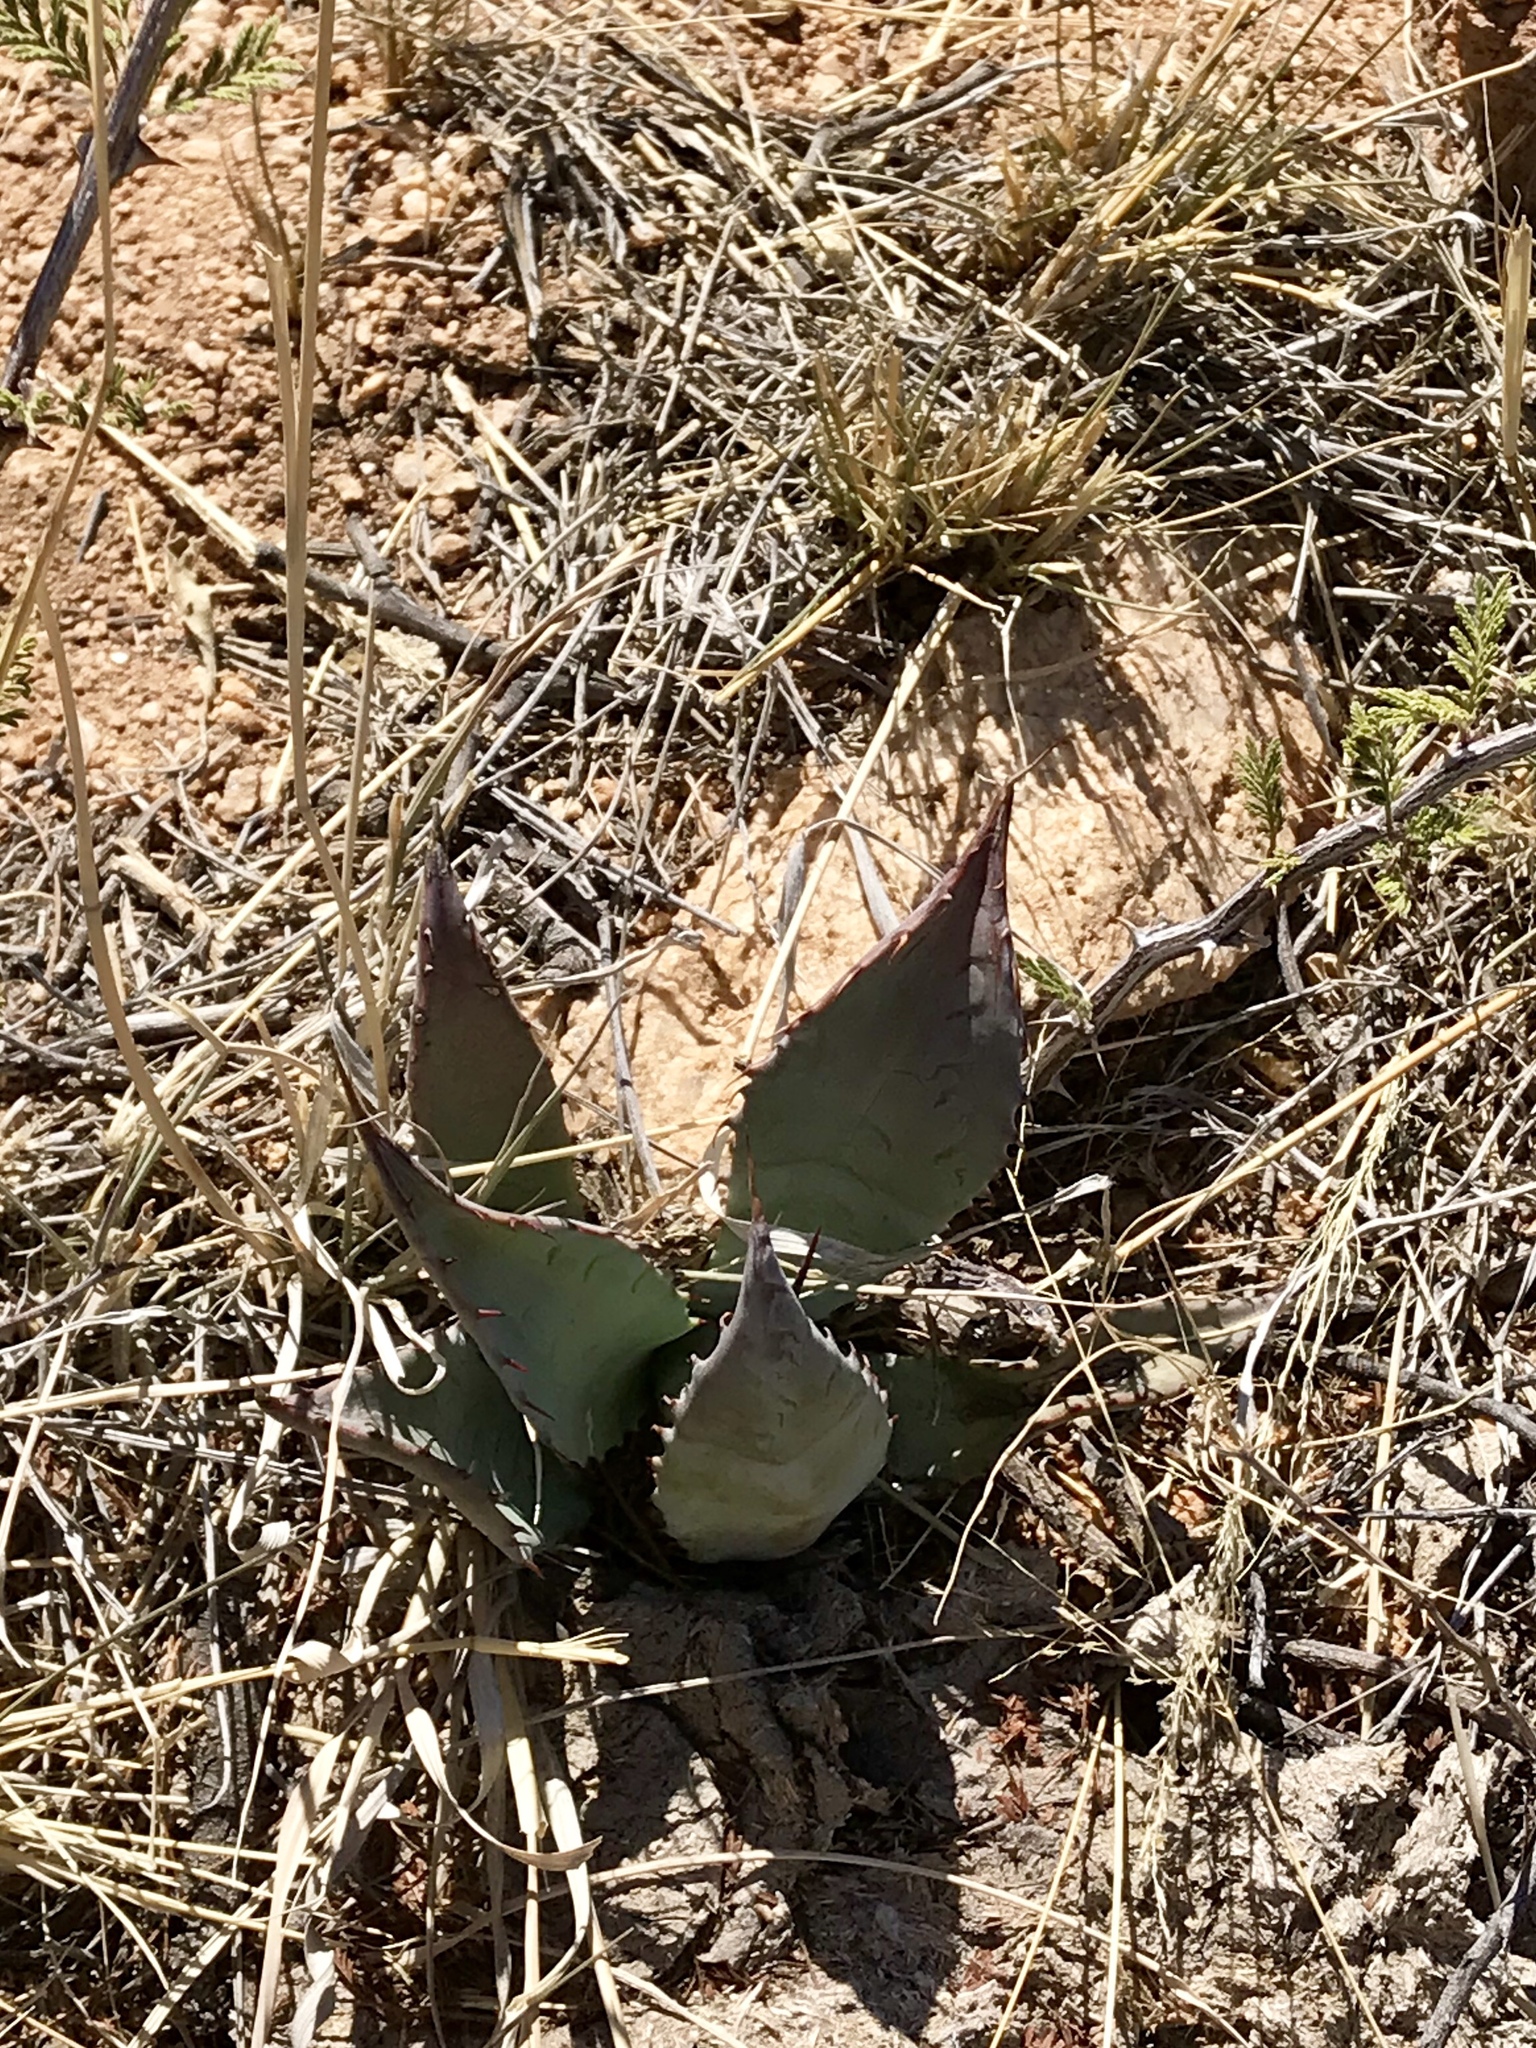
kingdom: Plantae
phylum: Tracheophyta
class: Liliopsida
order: Asparagales
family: Asparagaceae
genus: Agave
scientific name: Agave palmeri
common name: Palmer agave
